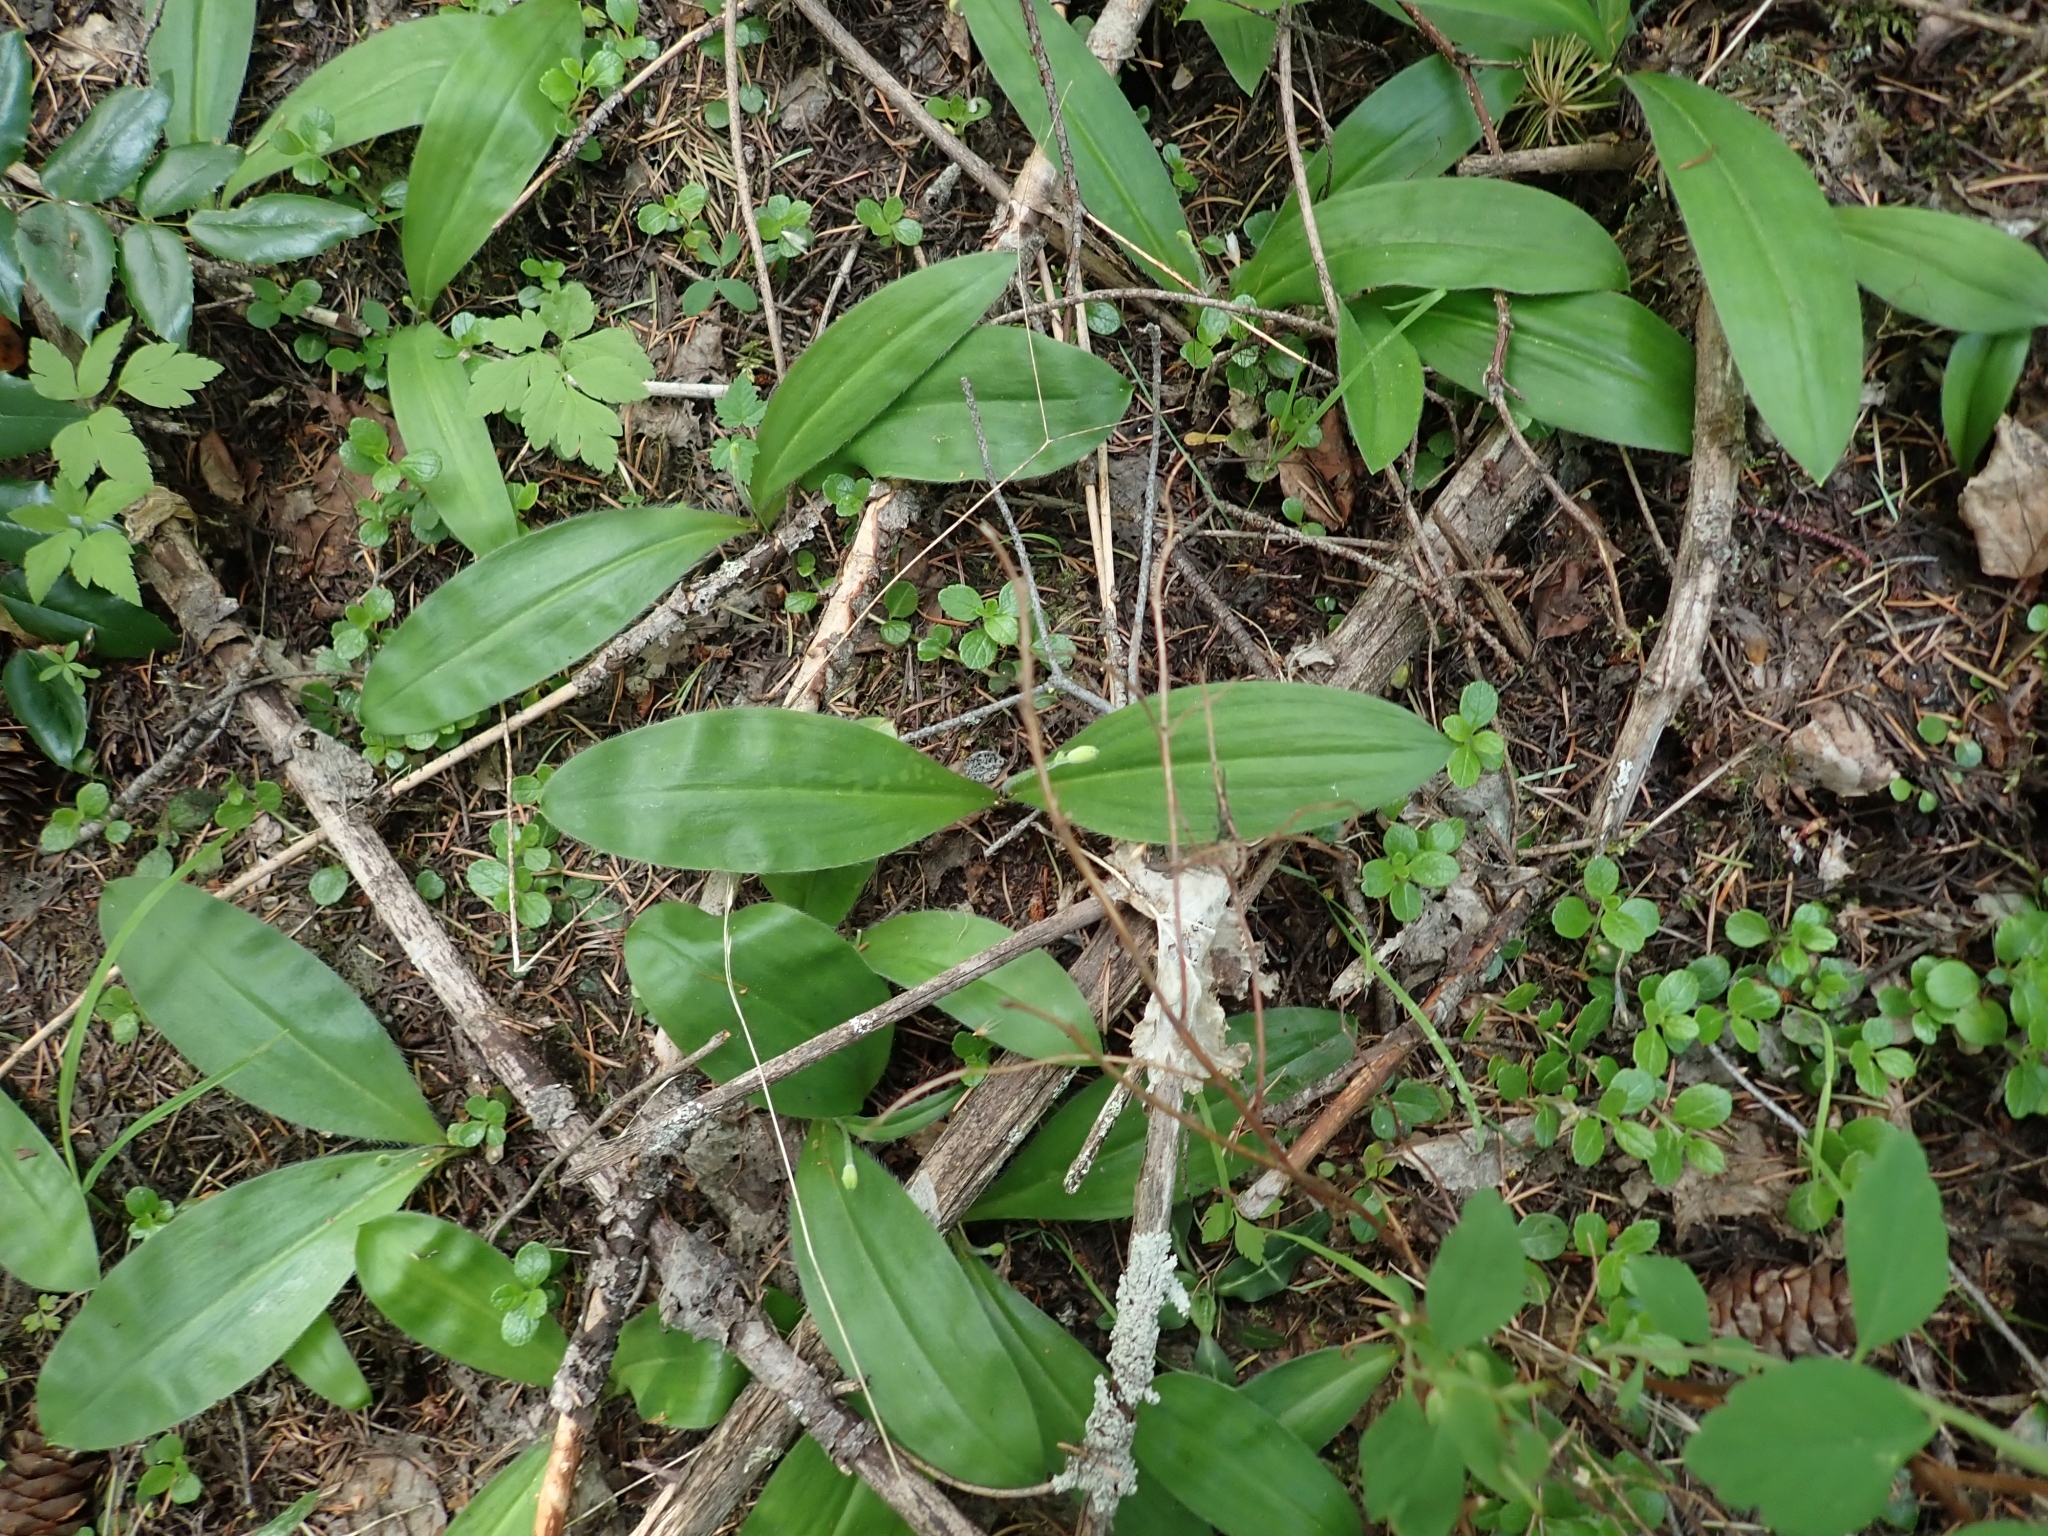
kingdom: Plantae
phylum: Tracheophyta
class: Liliopsida
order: Liliales
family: Liliaceae
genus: Clintonia
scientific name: Clintonia uniflora
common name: Queen's cup
